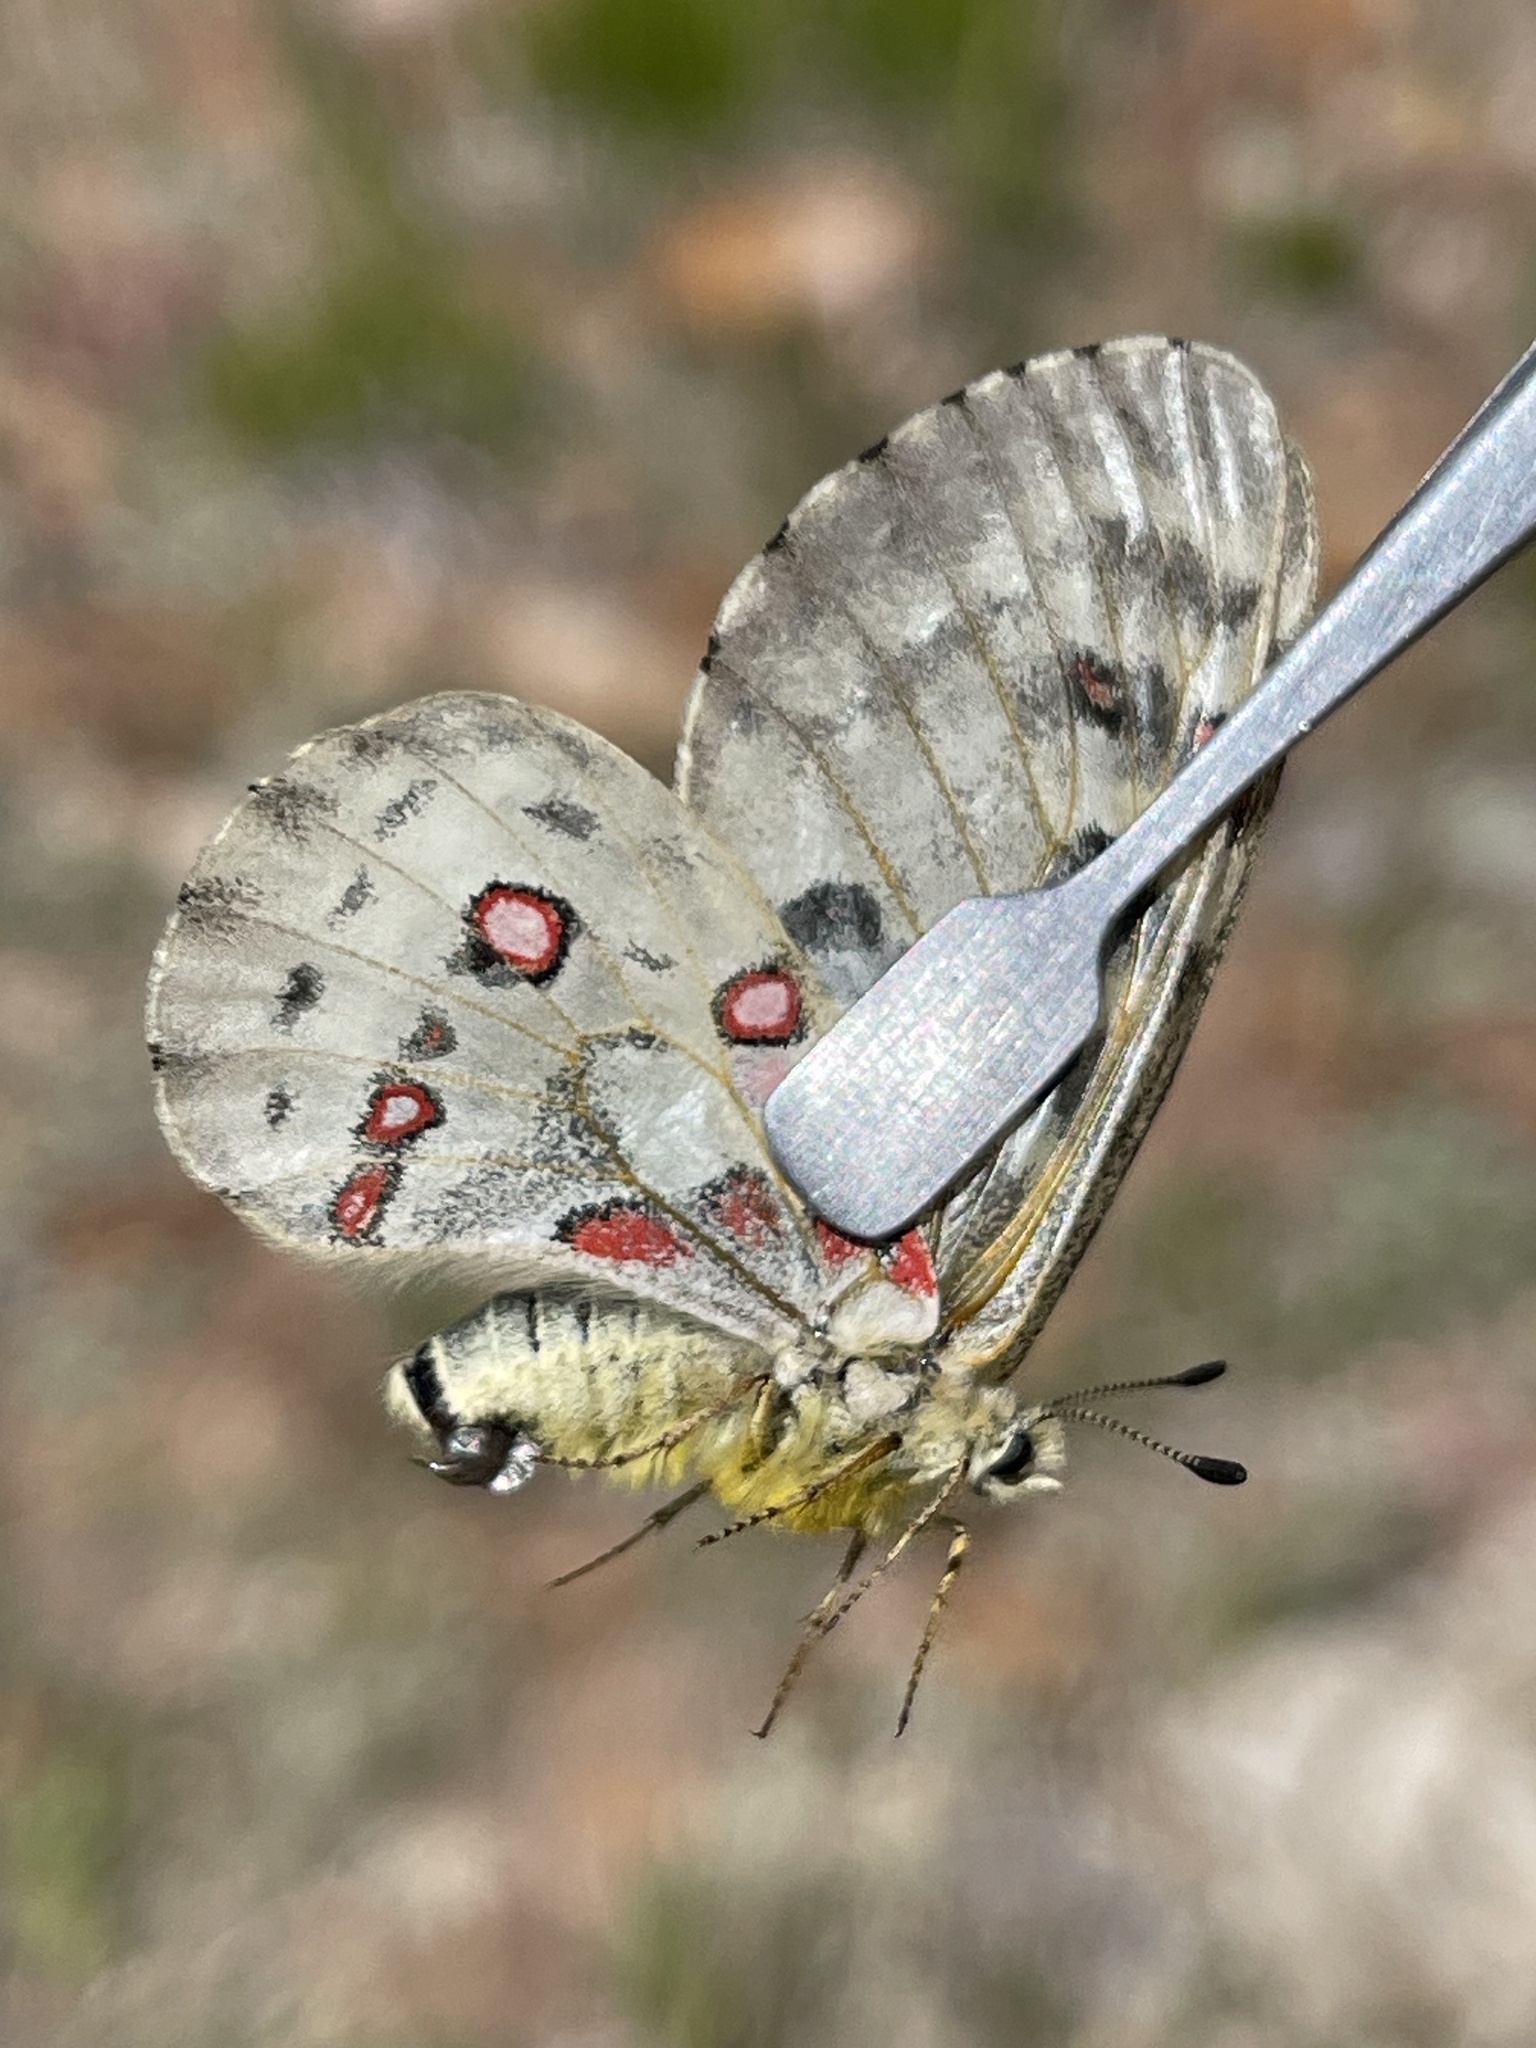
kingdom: Animalia
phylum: Arthropoda
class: Insecta
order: Lepidoptera
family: Papilionidae
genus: Parnassius
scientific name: Parnassius smintheus
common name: Mountain parnassian
